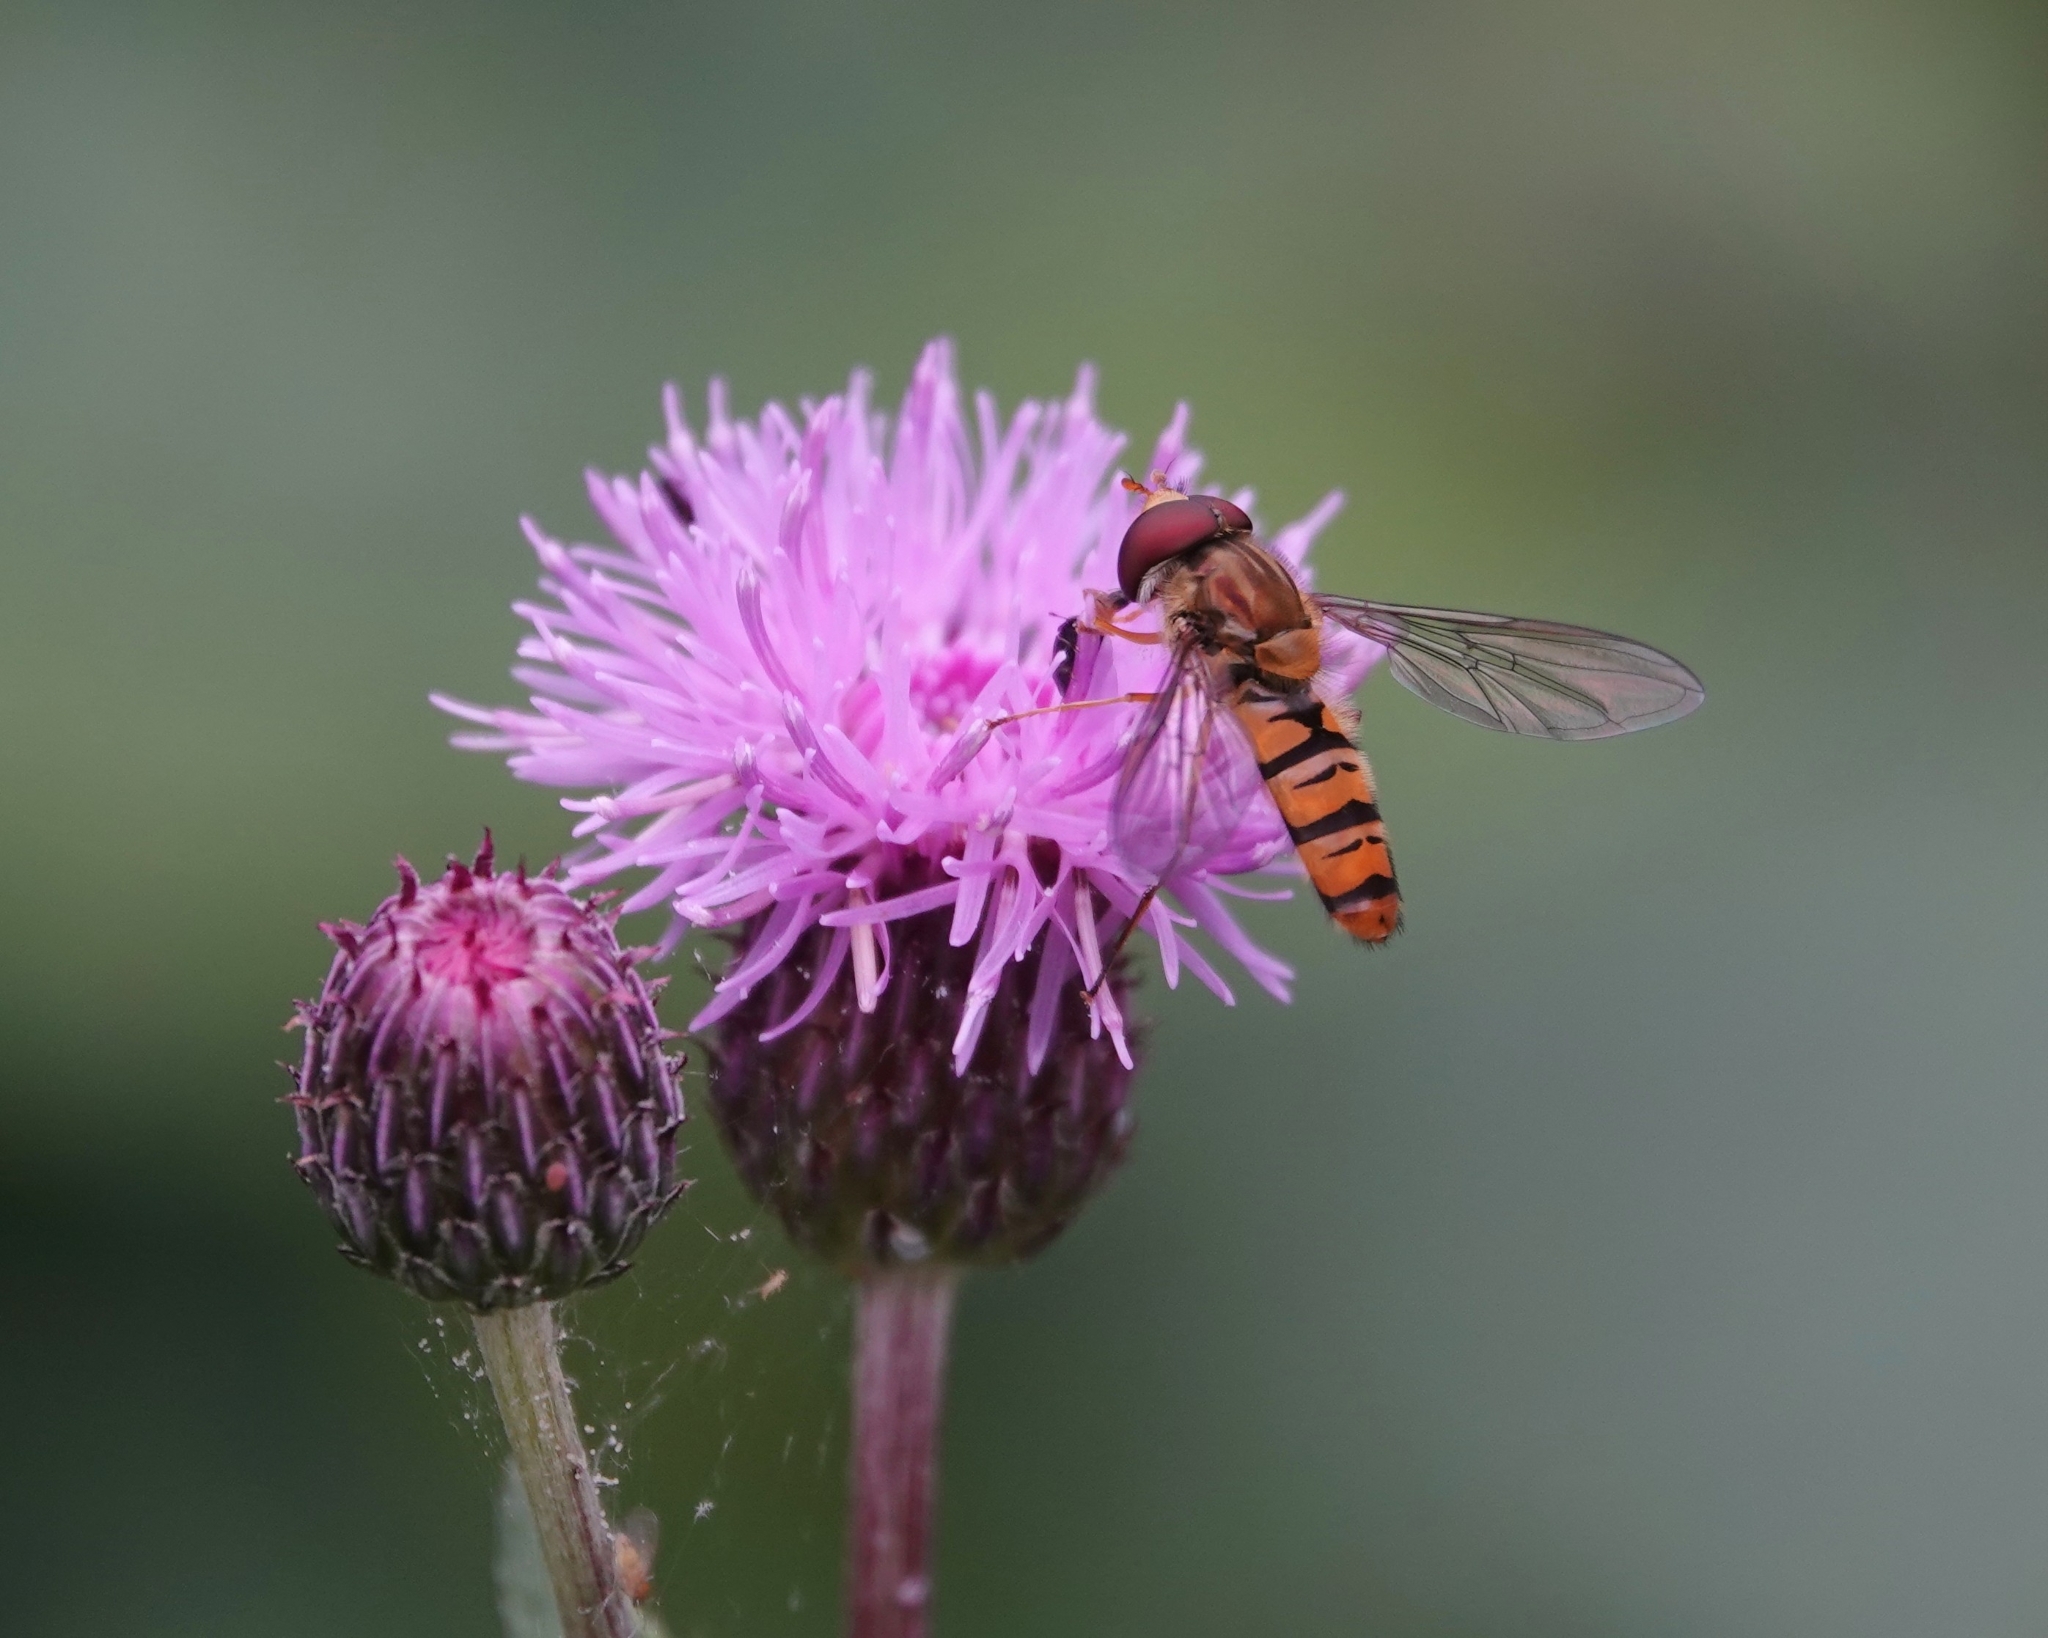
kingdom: Animalia
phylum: Arthropoda
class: Insecta
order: Diptera
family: Syrphidae
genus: Episyrphus
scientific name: Episyrphus balteatus
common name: Marmalade hoverfly
